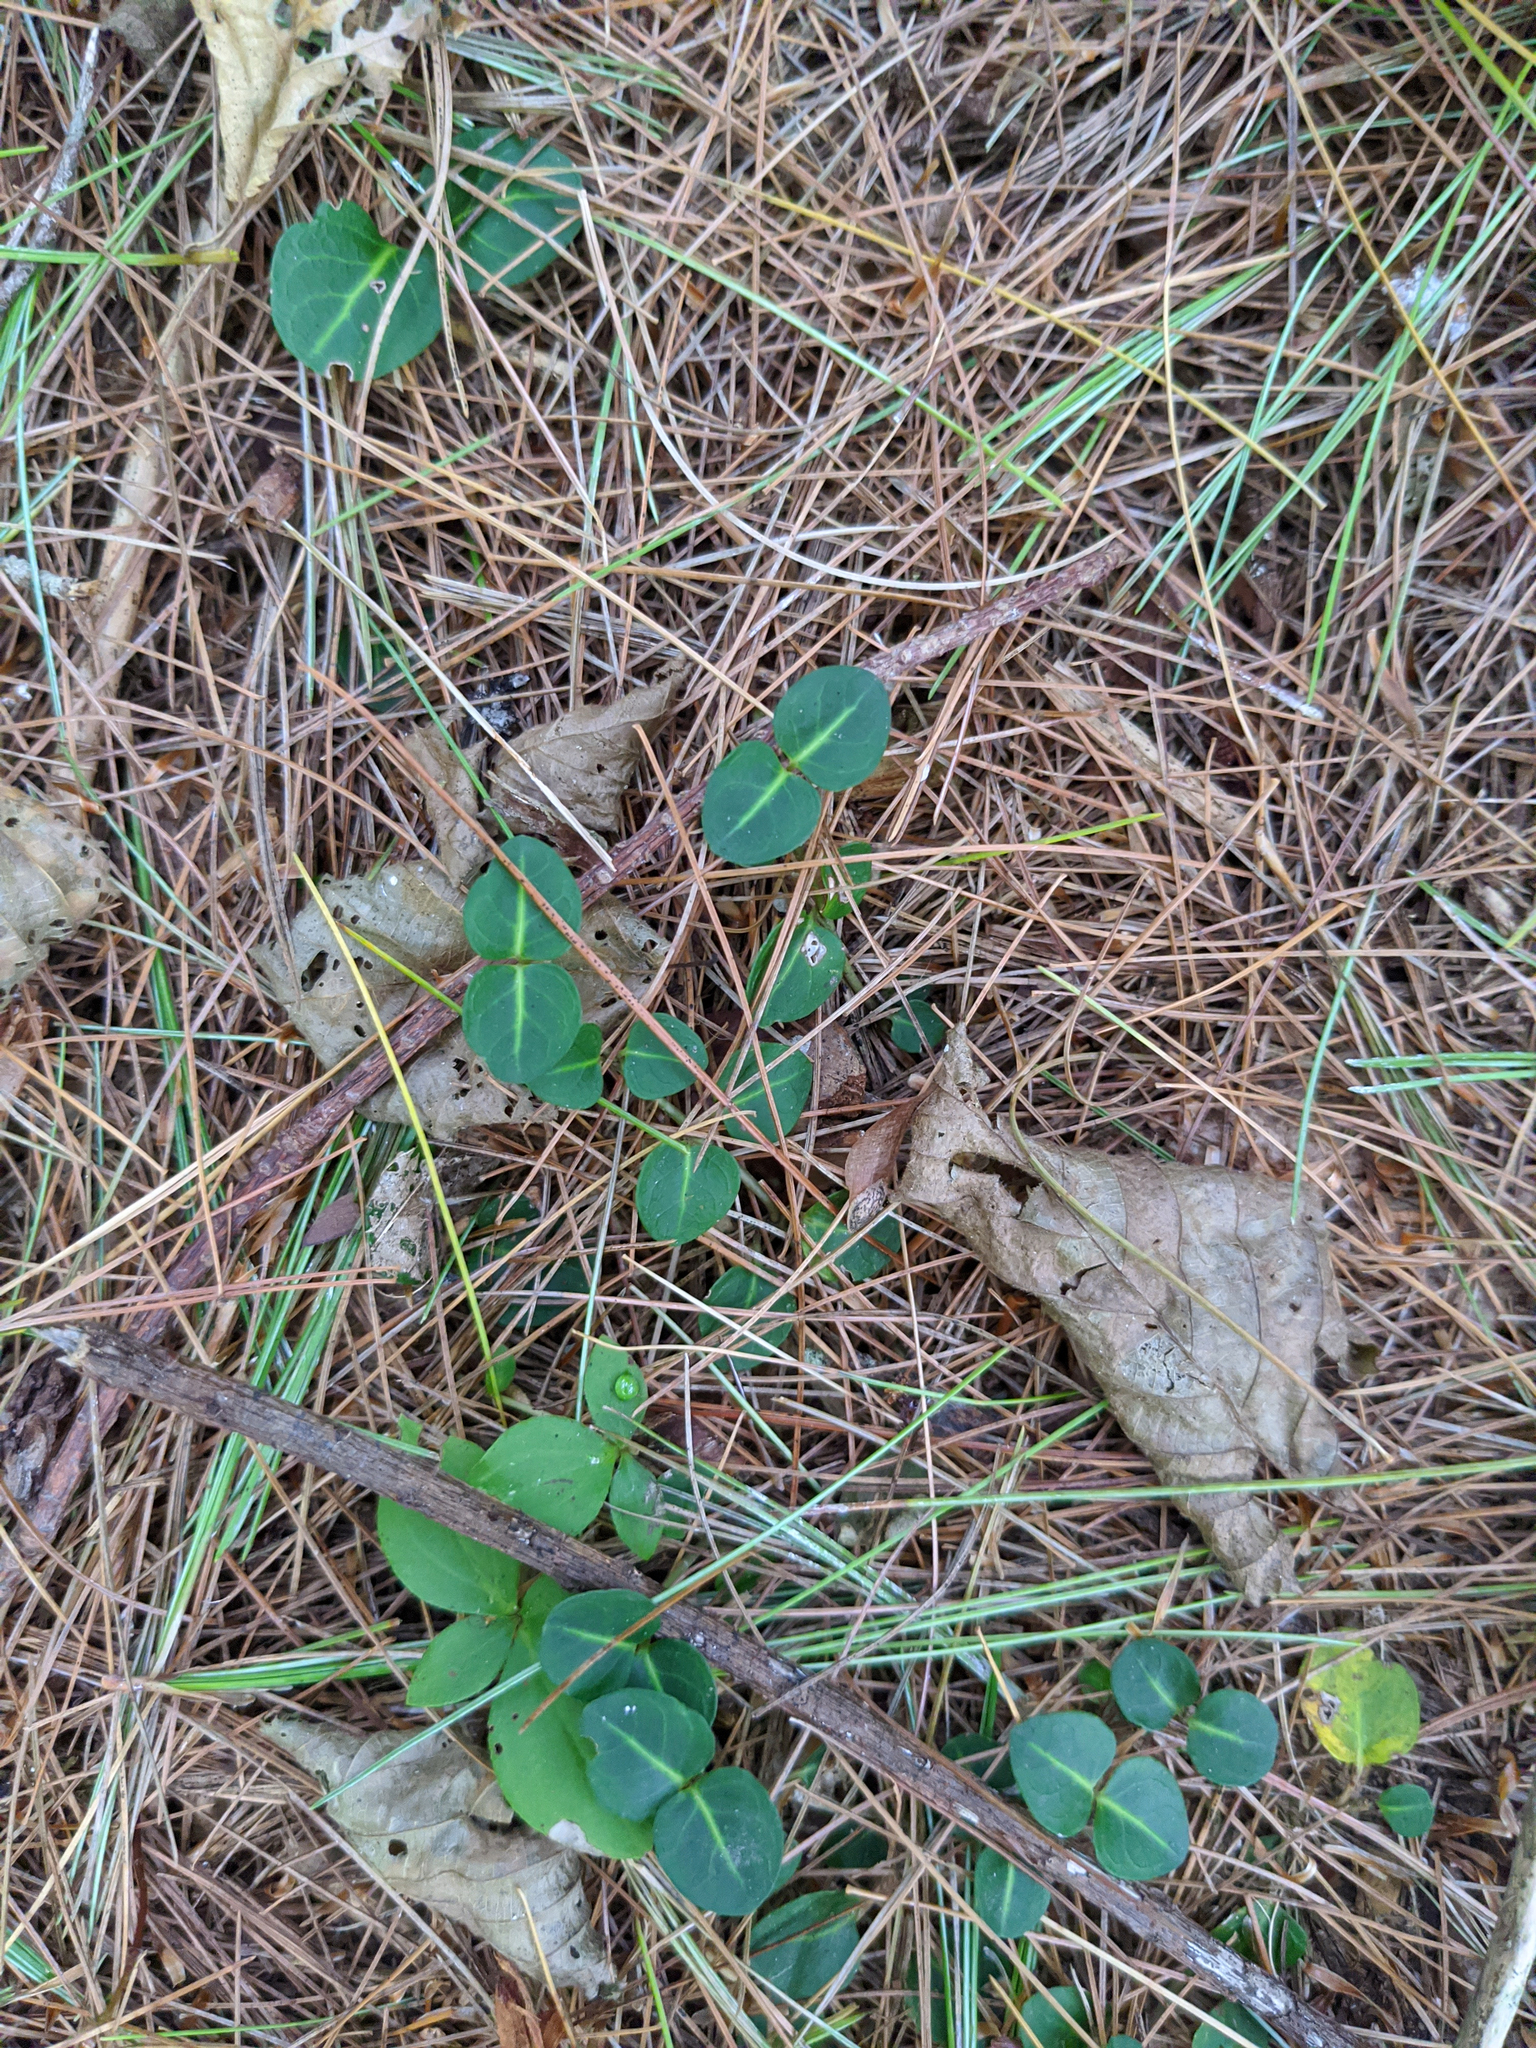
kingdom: Plantae
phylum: Tracheophyta
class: Magnoliopsida
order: Gentianales
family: Rubiaceae
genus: Mitchella
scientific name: Mitchella repens
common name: Partridge-berry
